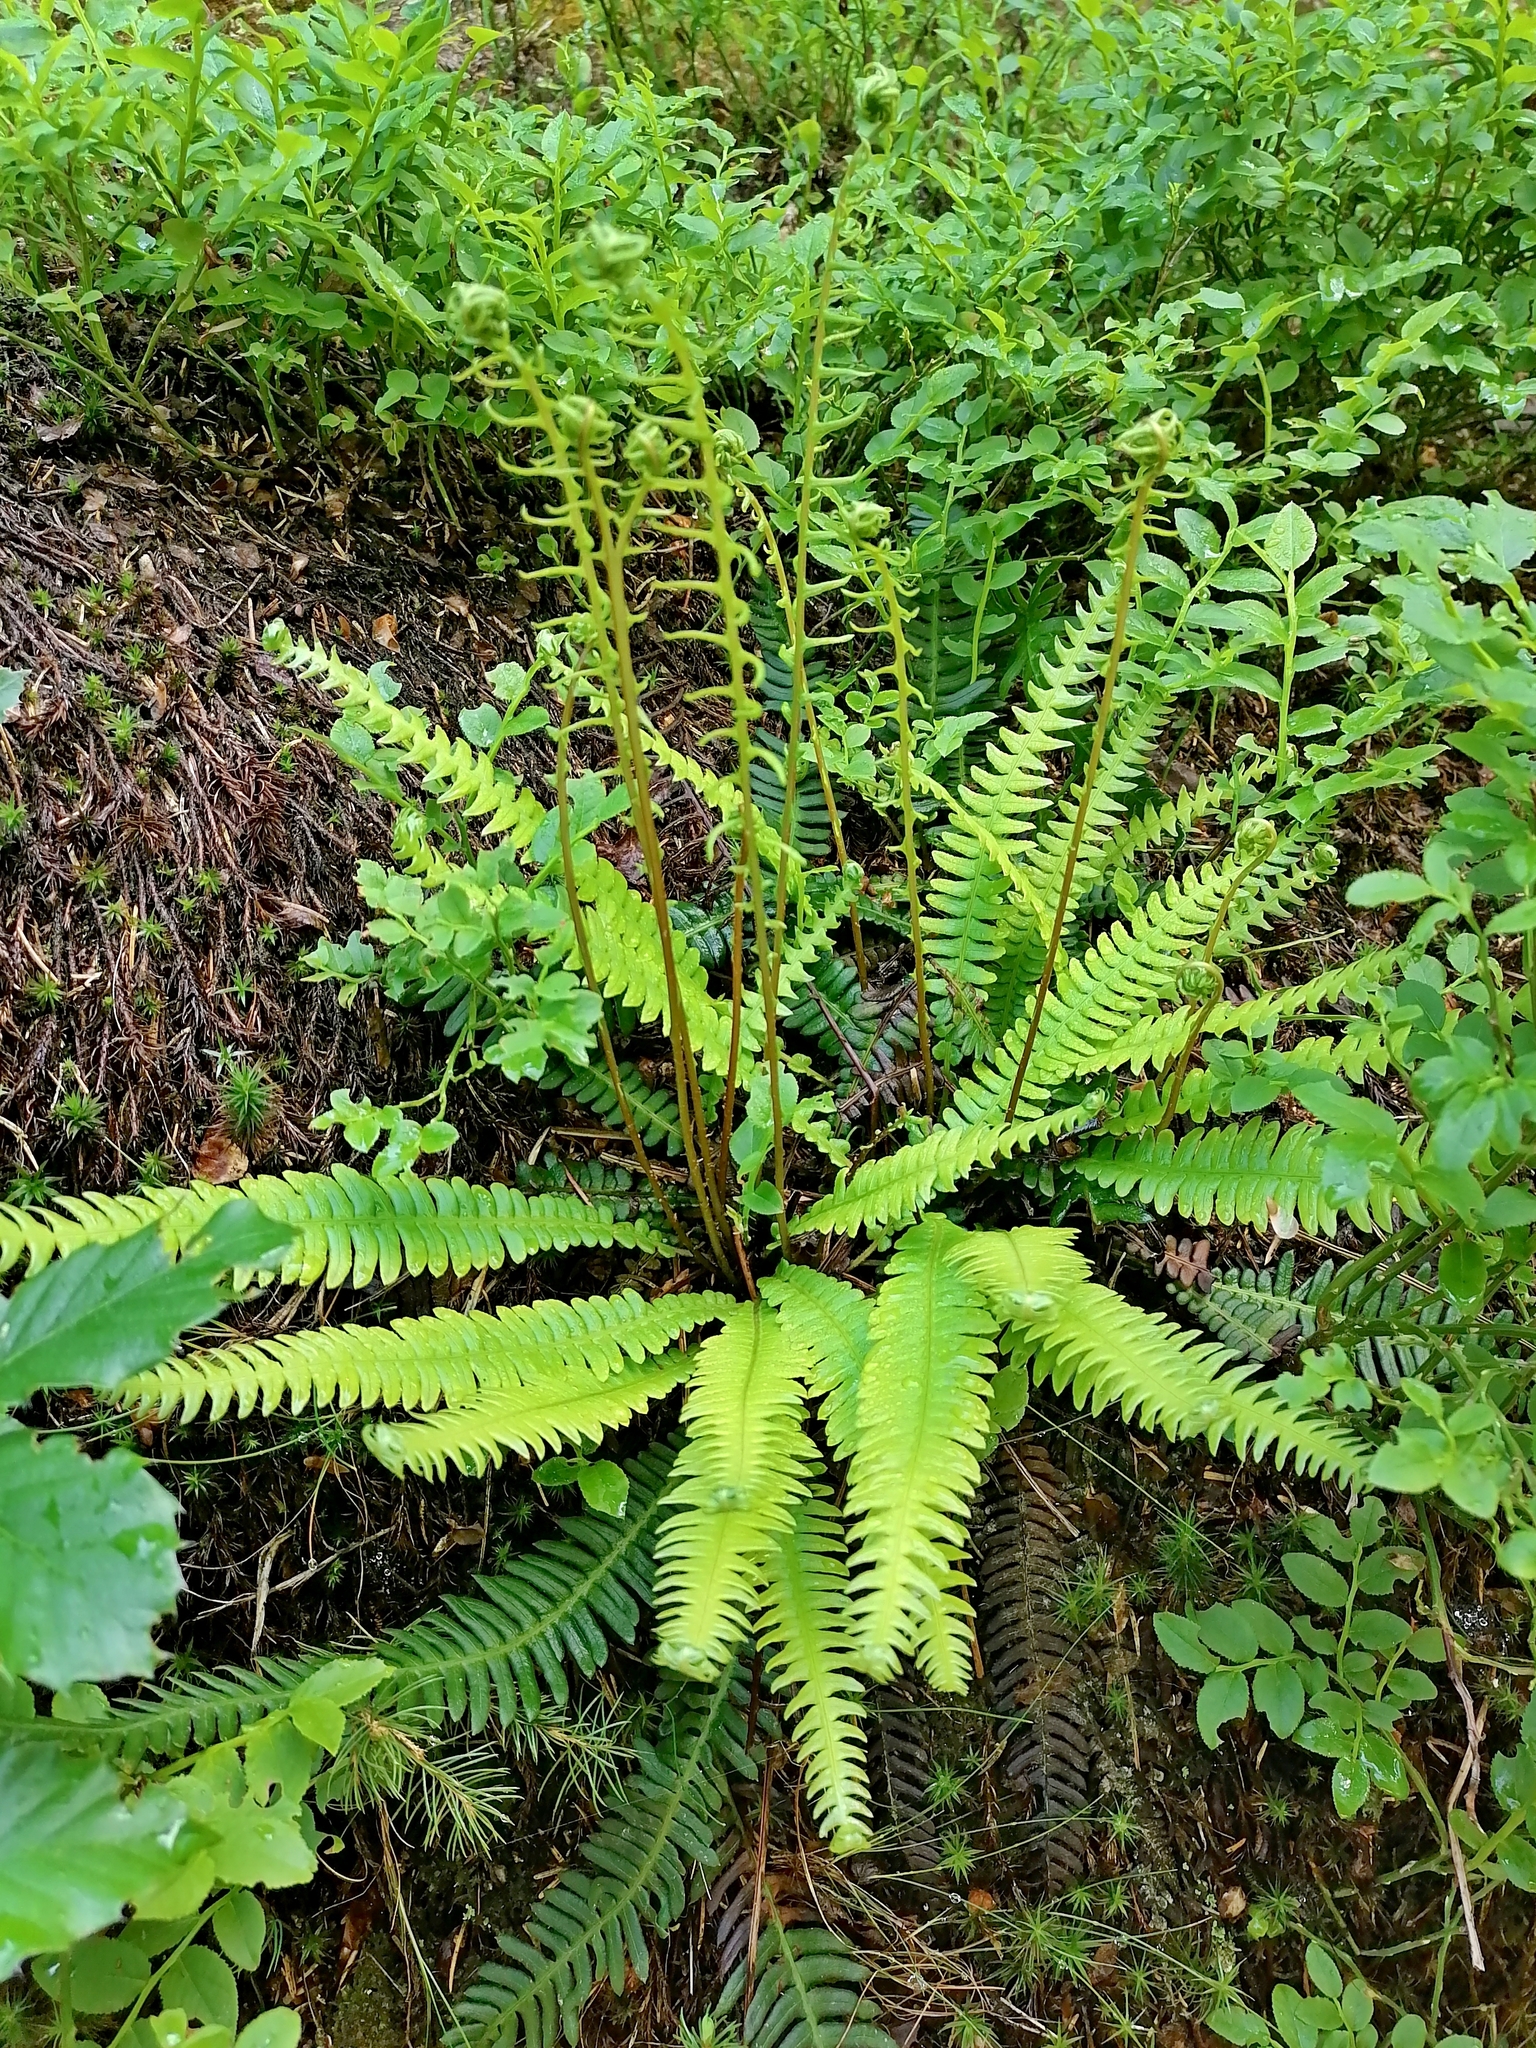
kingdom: Plantae
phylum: Tracheophyta
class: Polypodiopsida
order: Polypodiales
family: Blechnaceae
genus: Struthiopteris
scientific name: Struthiopteris spicant
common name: Deer fern
